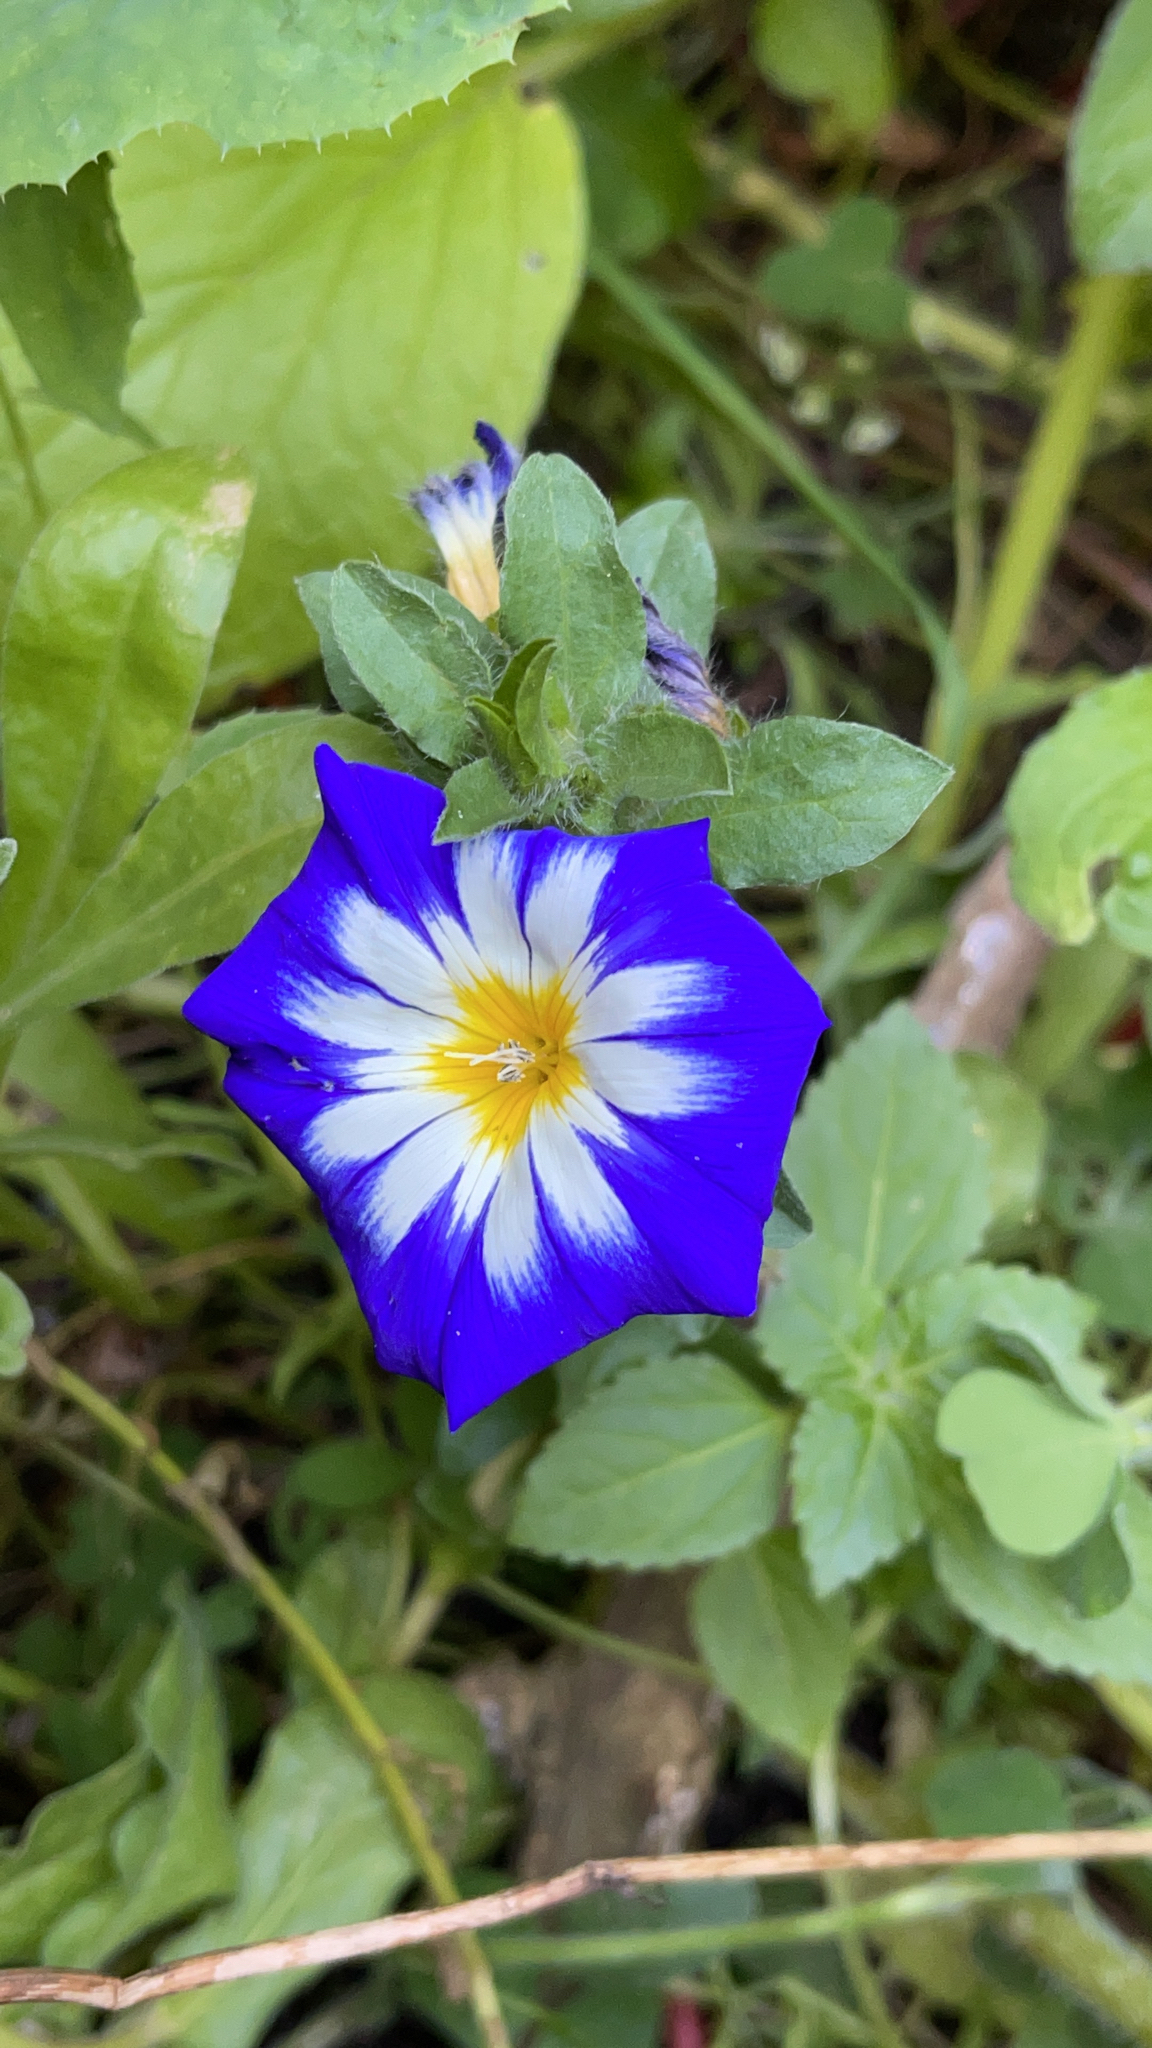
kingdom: Plantae
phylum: Tracheophyta
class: Magnoliopsida
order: Solanales
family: Convolvulaceae
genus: Convolvulus
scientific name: Convolvulus tricolor
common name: Dwarf morning-glory
